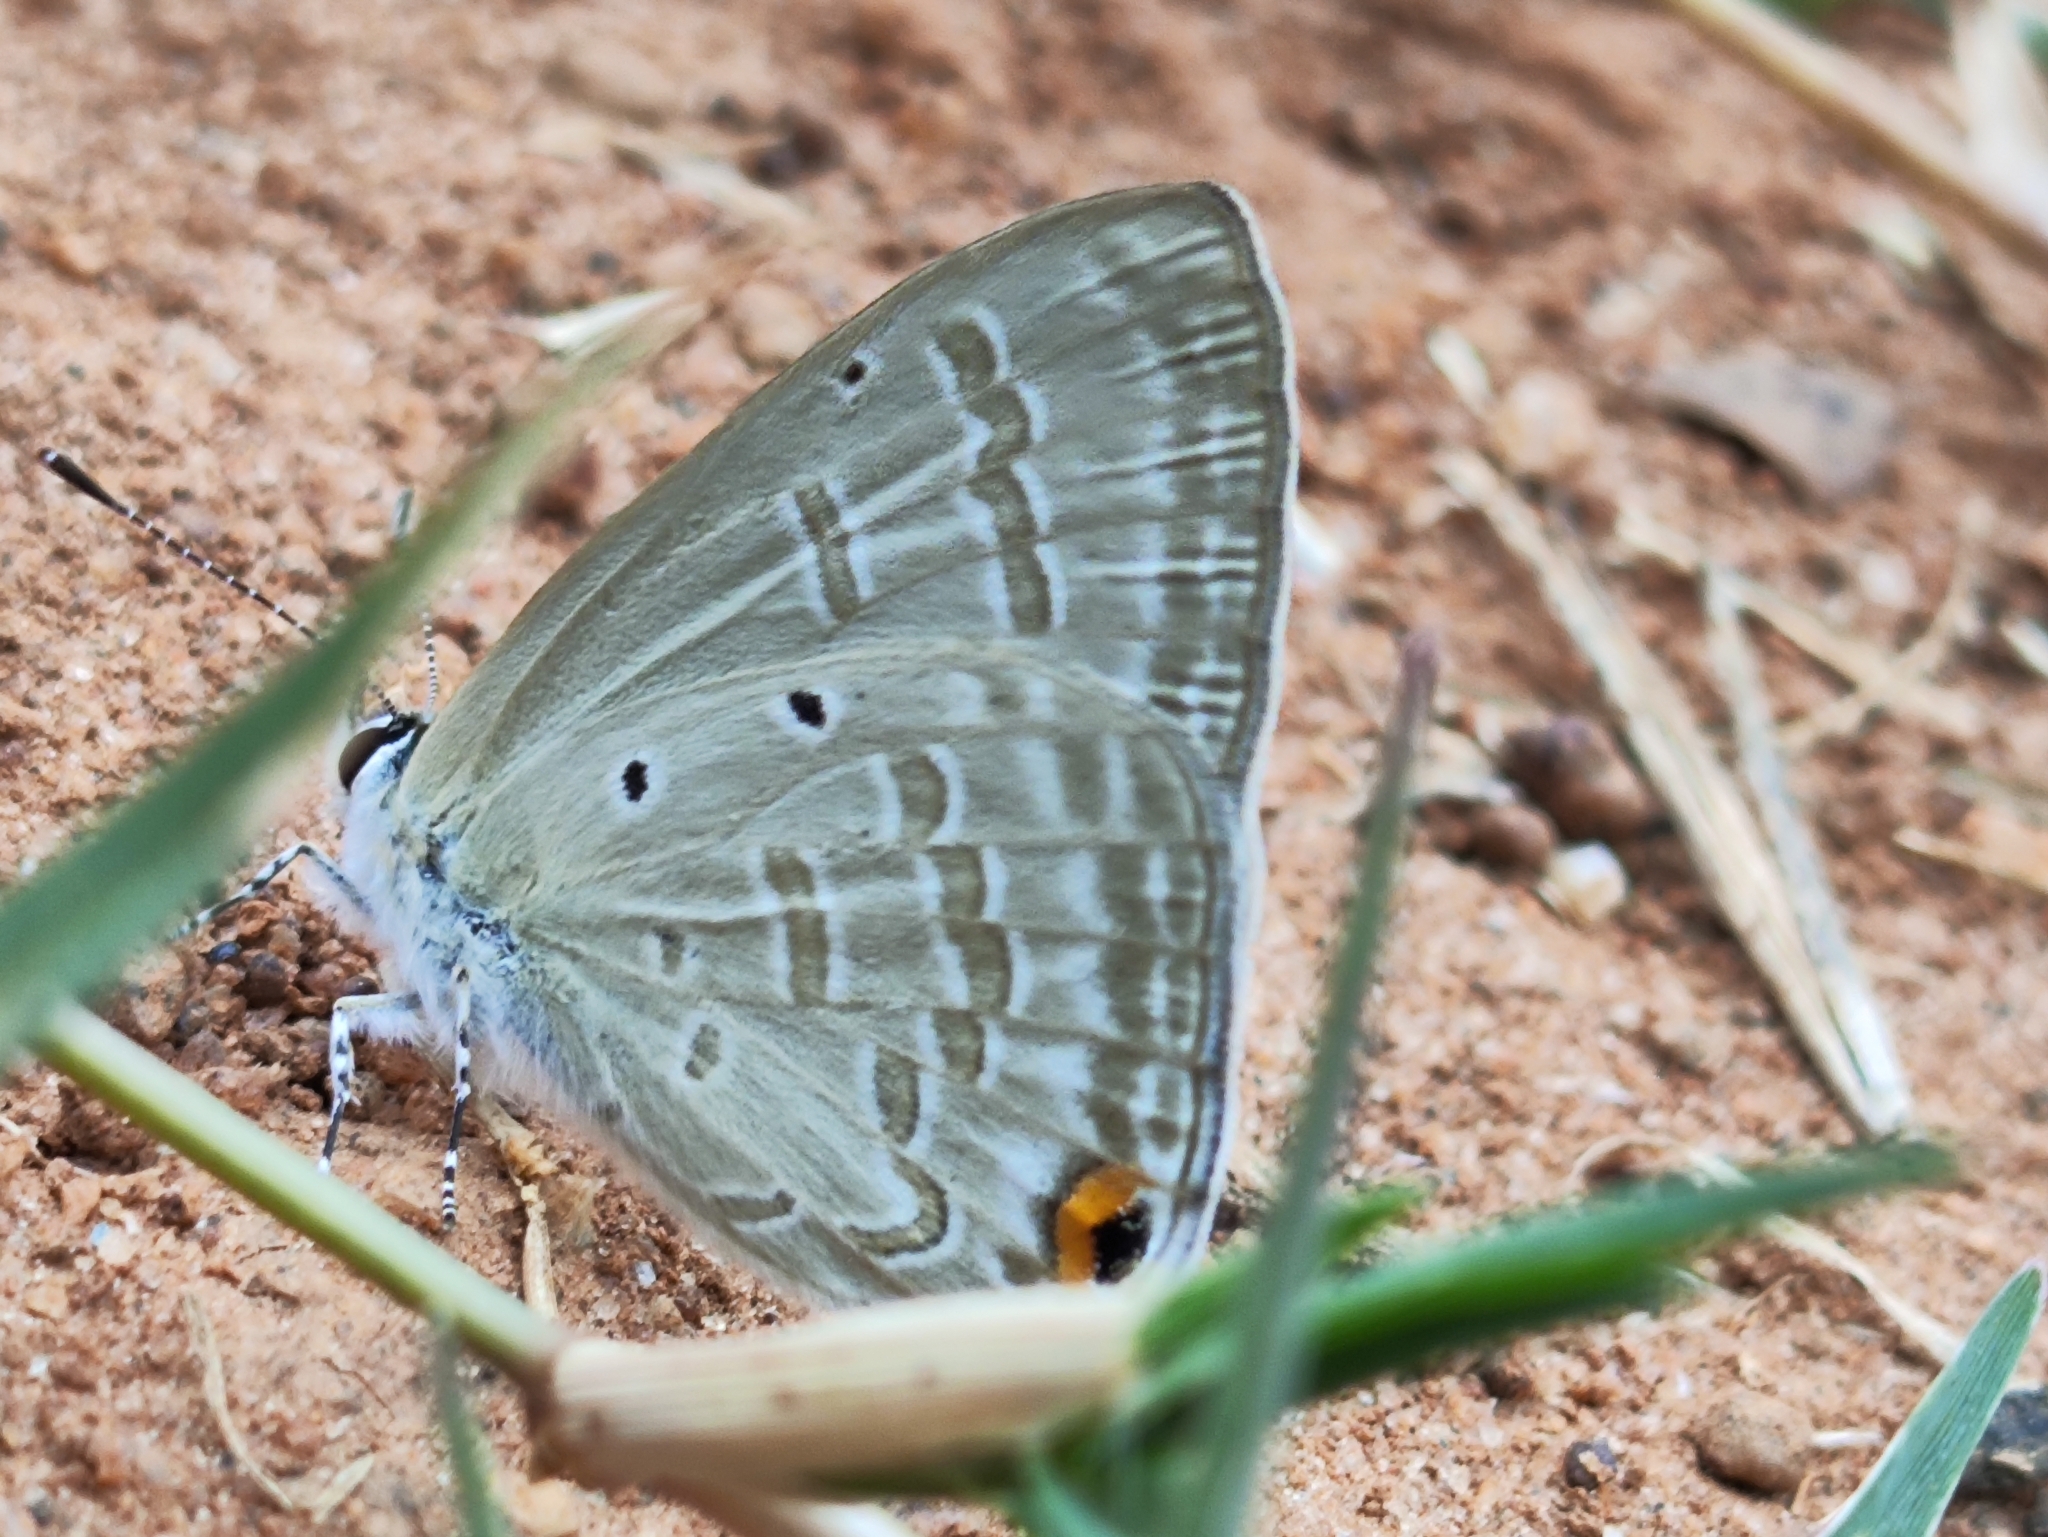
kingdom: Animalia
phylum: Arthropoda
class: Insecta
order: Lepidoptera
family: Lycaenidae
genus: Catochrysops
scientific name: Catochrysops strabo
